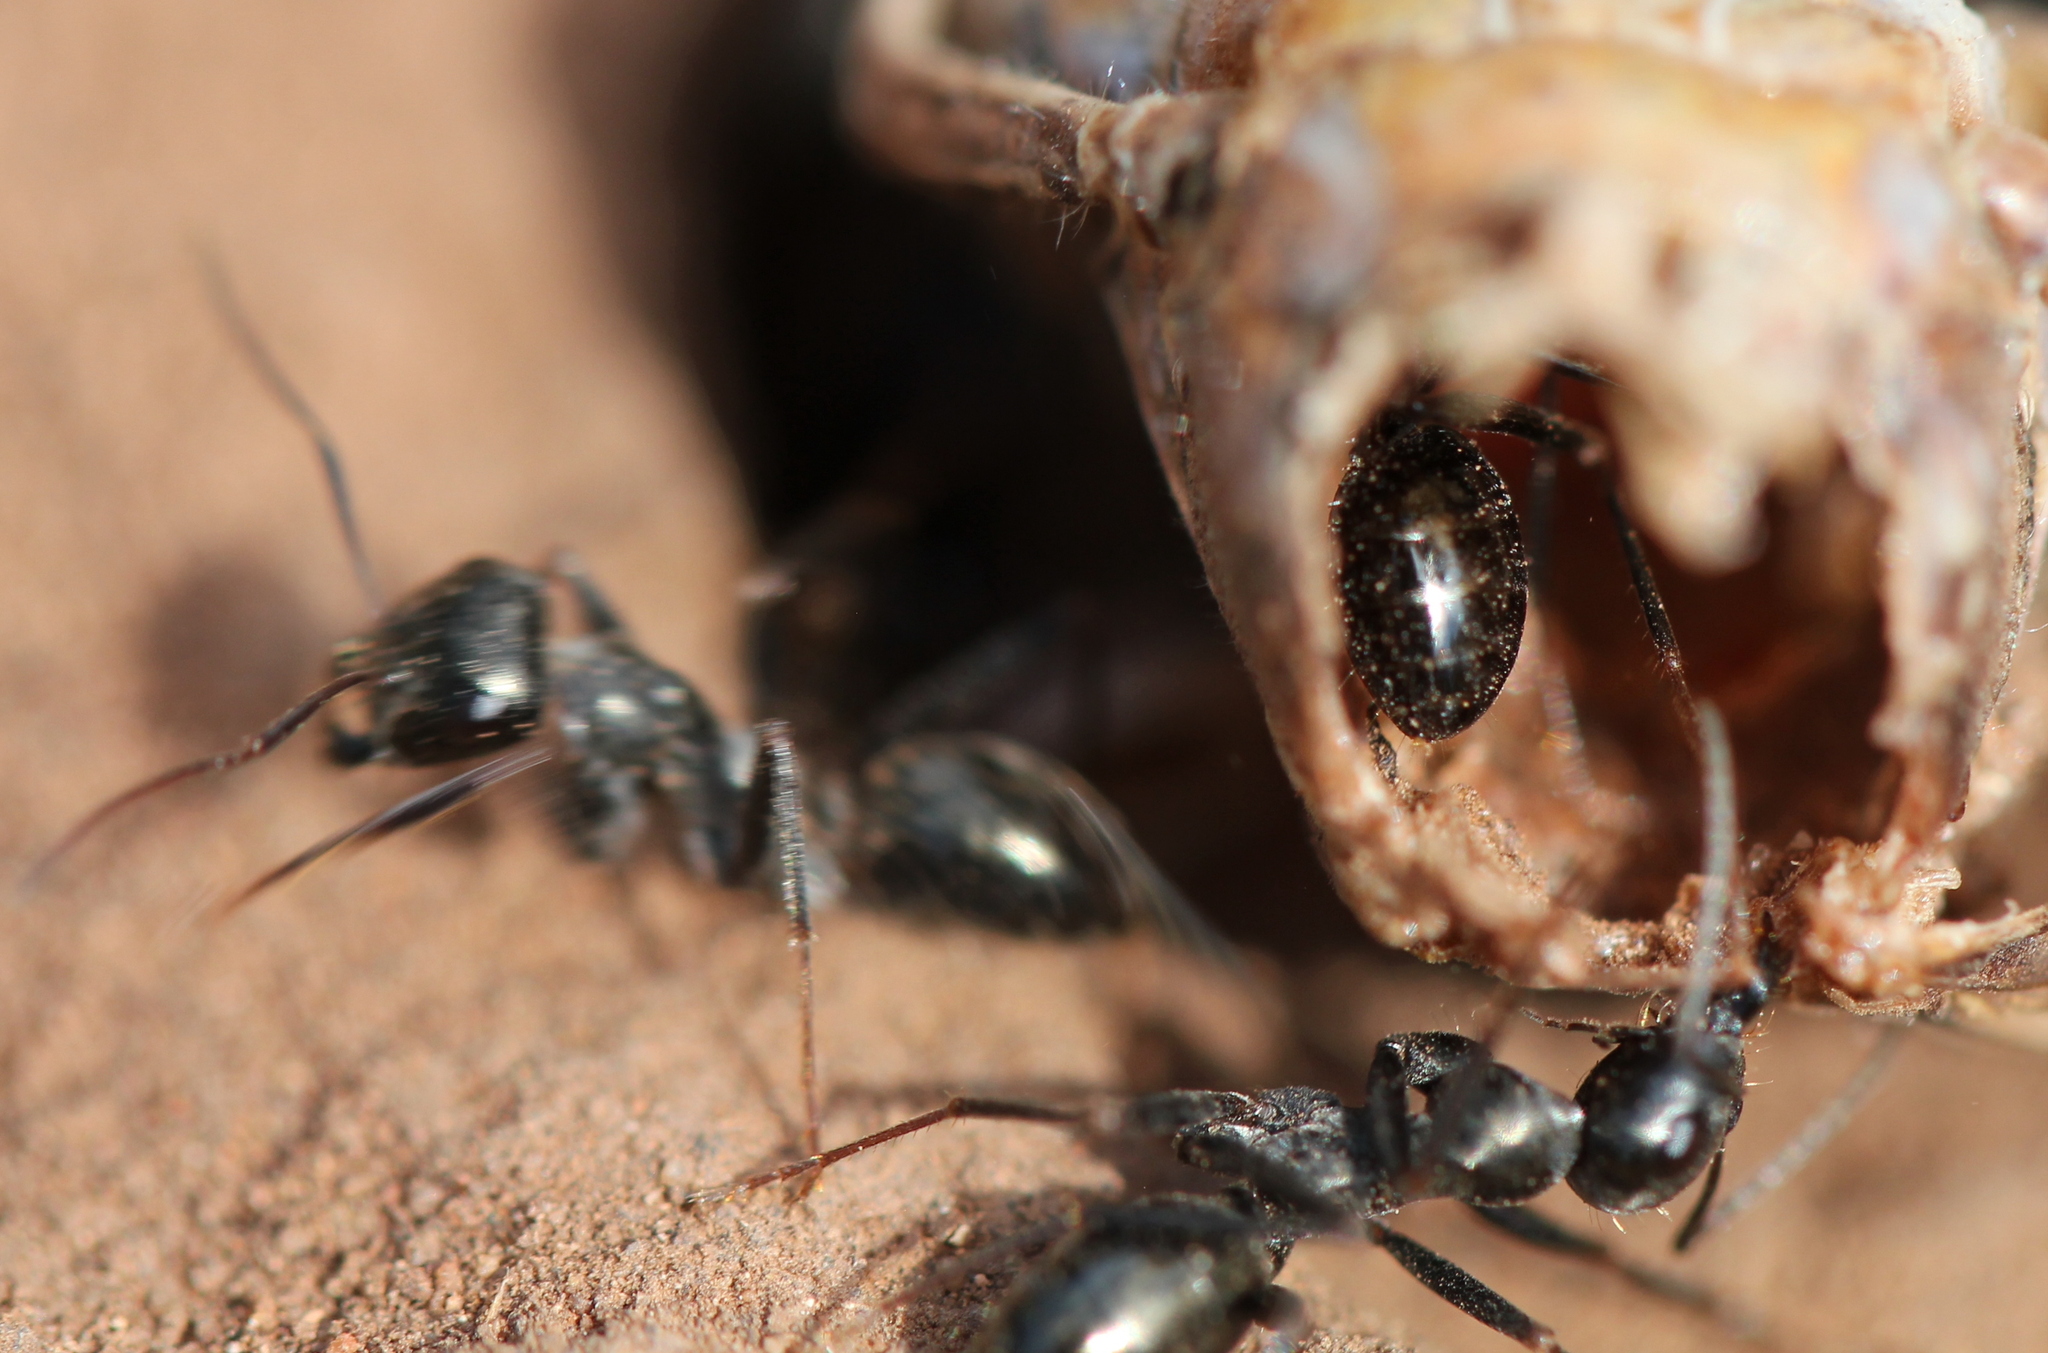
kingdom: Animalia
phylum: Arthropoda
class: Insecta
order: Hymenoptera
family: Formicidae
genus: Cataglyphis
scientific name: Cataglyphis aenescens
